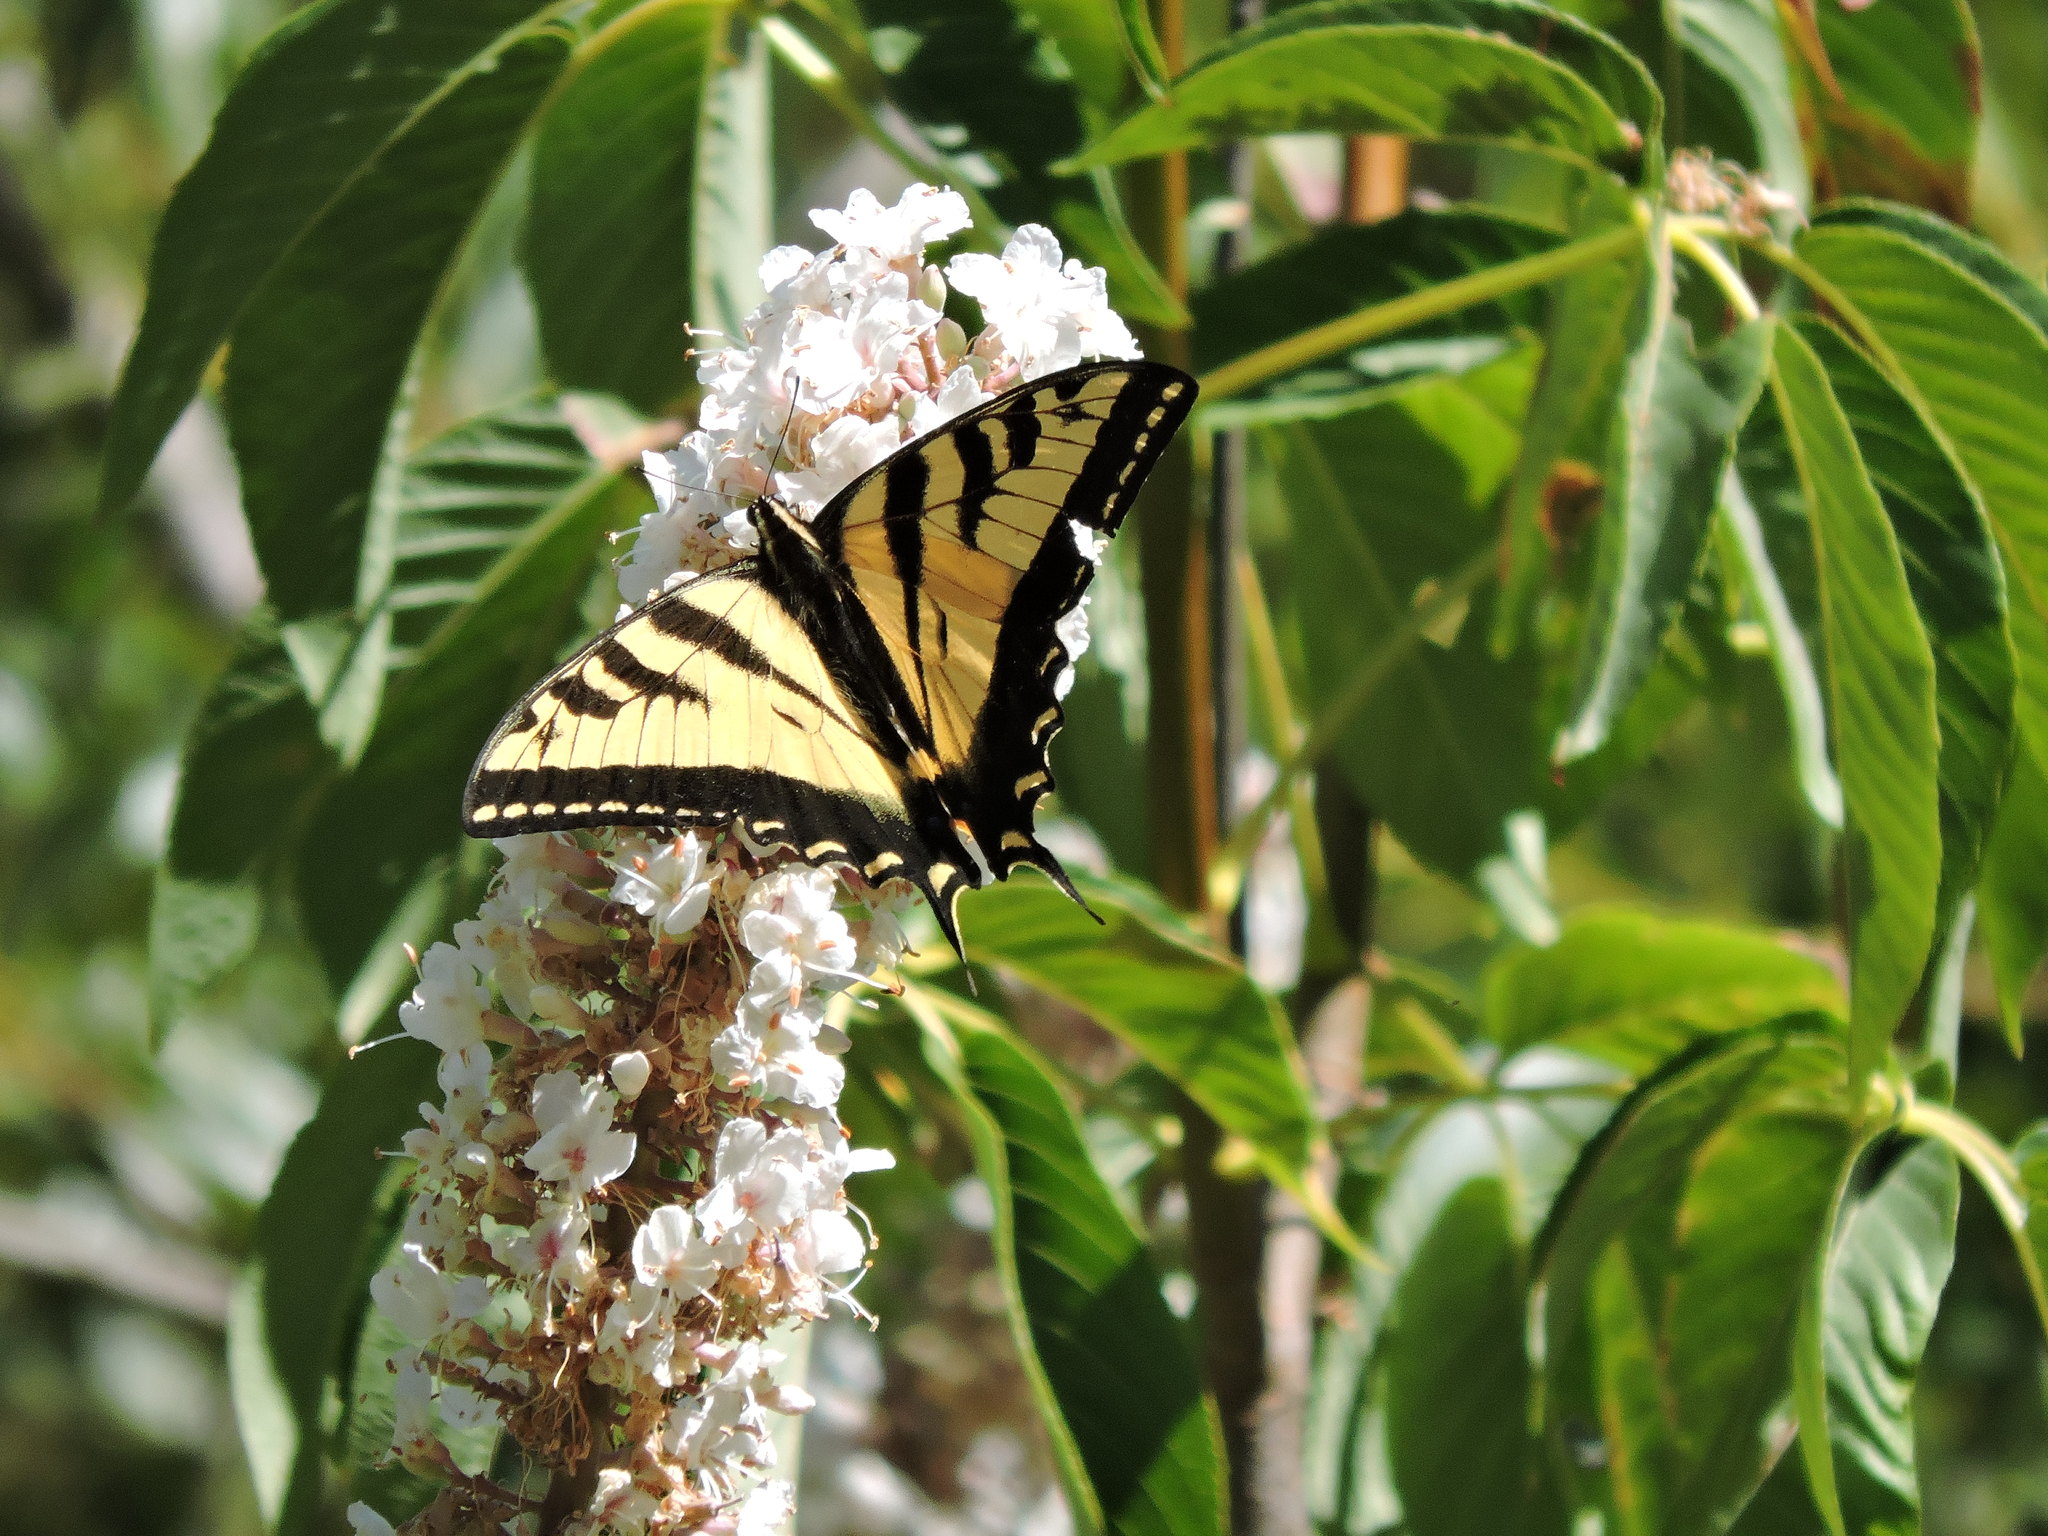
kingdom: Animalia
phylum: Arthropoda
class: Insecta
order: Lepidoptera
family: Papilionidae
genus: Papilio
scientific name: Papilio rutulus
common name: Western tiger swallowtail
